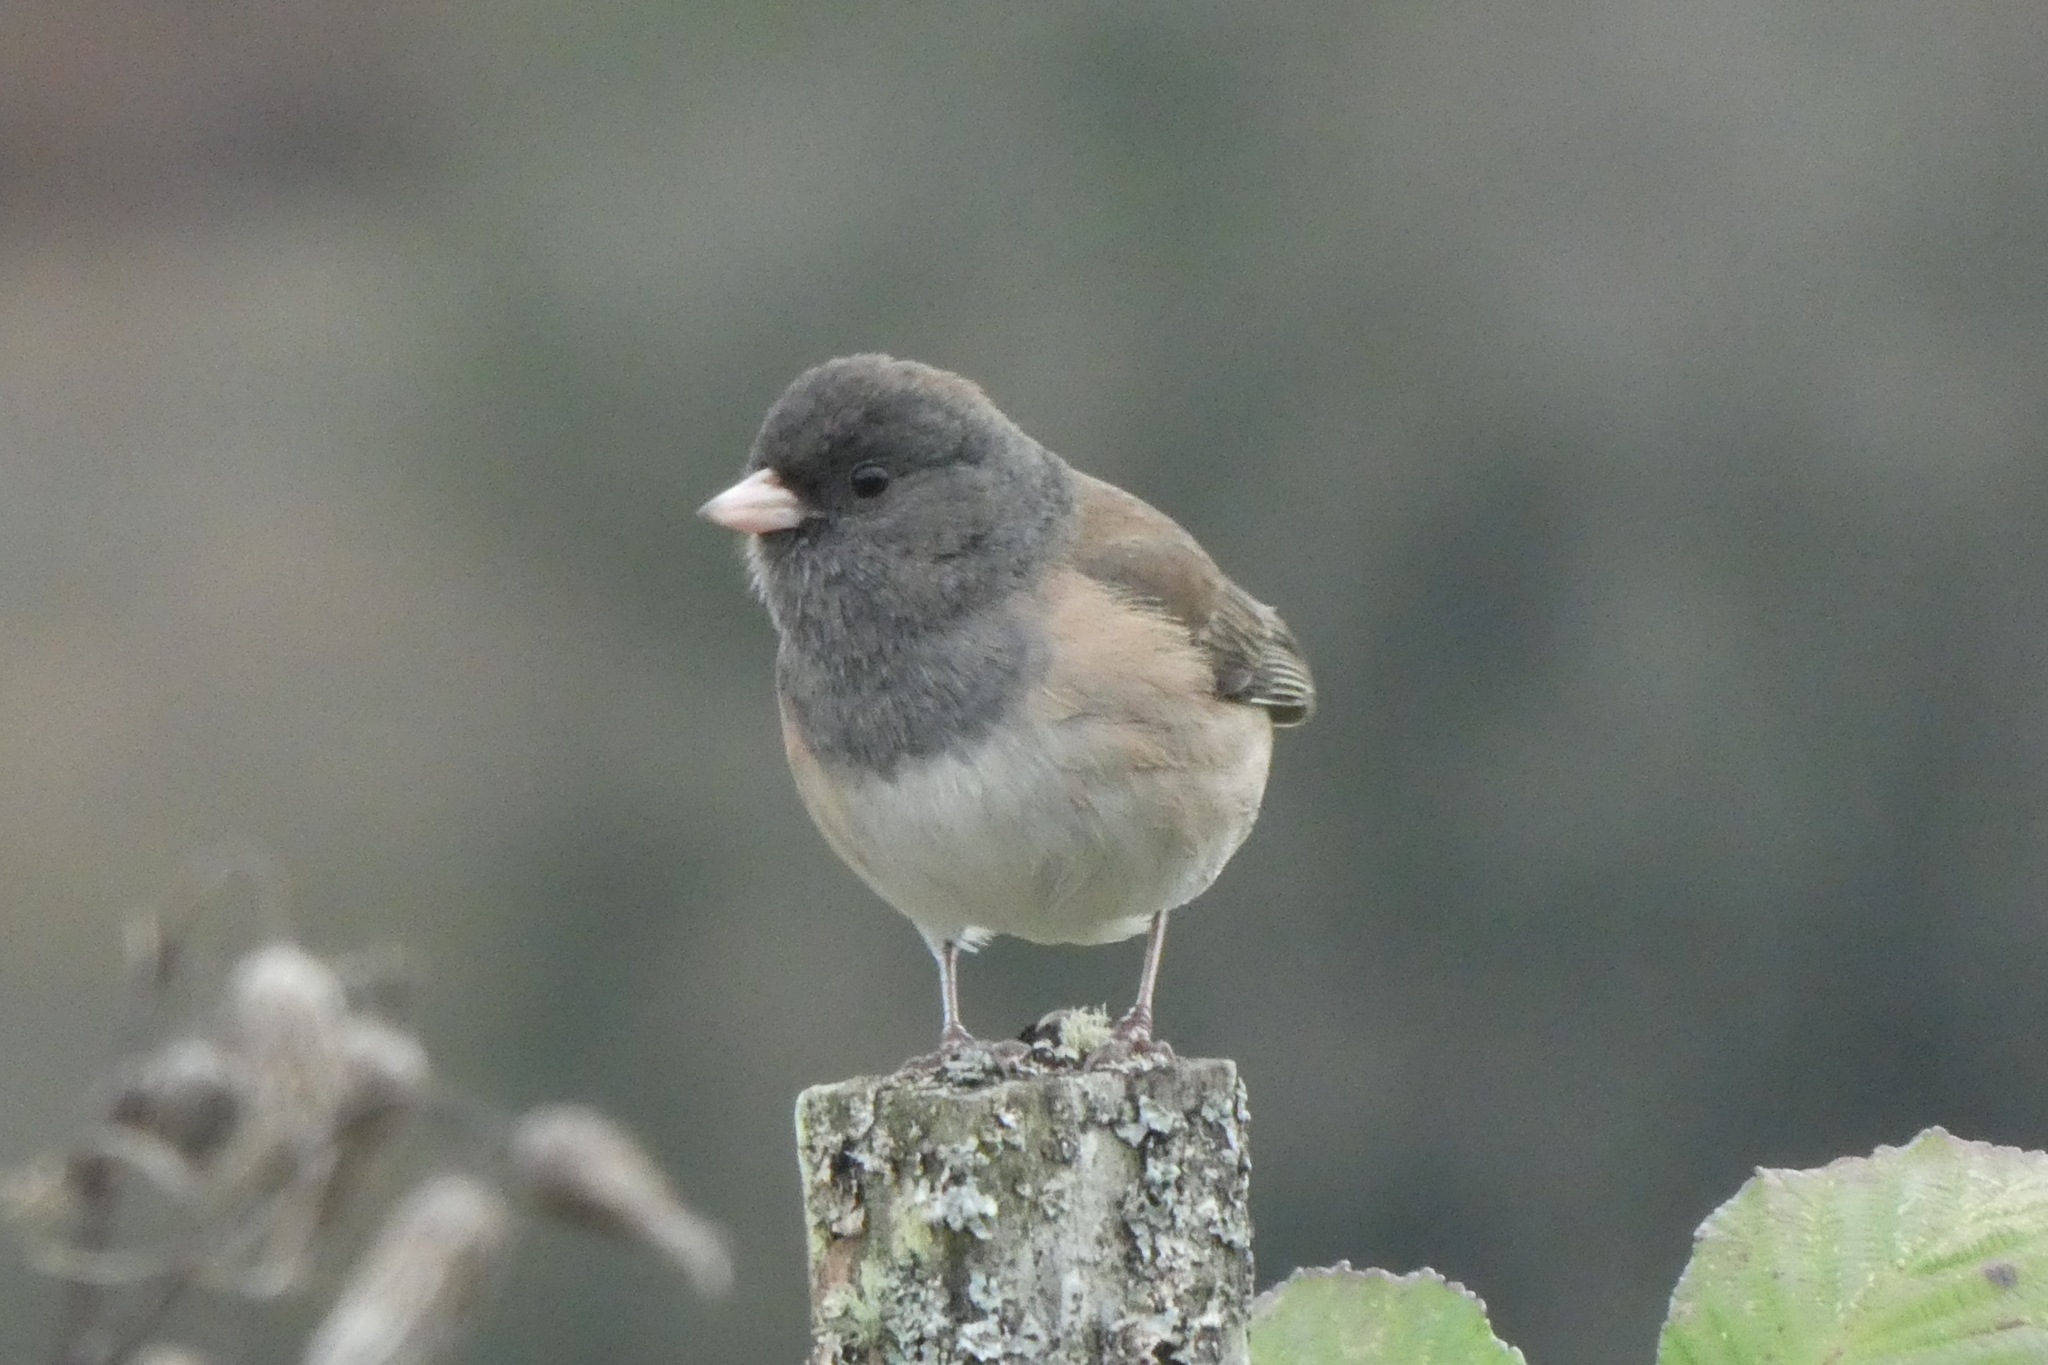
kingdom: Animalia
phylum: Chordata
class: Aves
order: Passeriformes
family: Passerellidae
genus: Junco
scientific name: Junco hyemalis
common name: Dark-eyed junco
